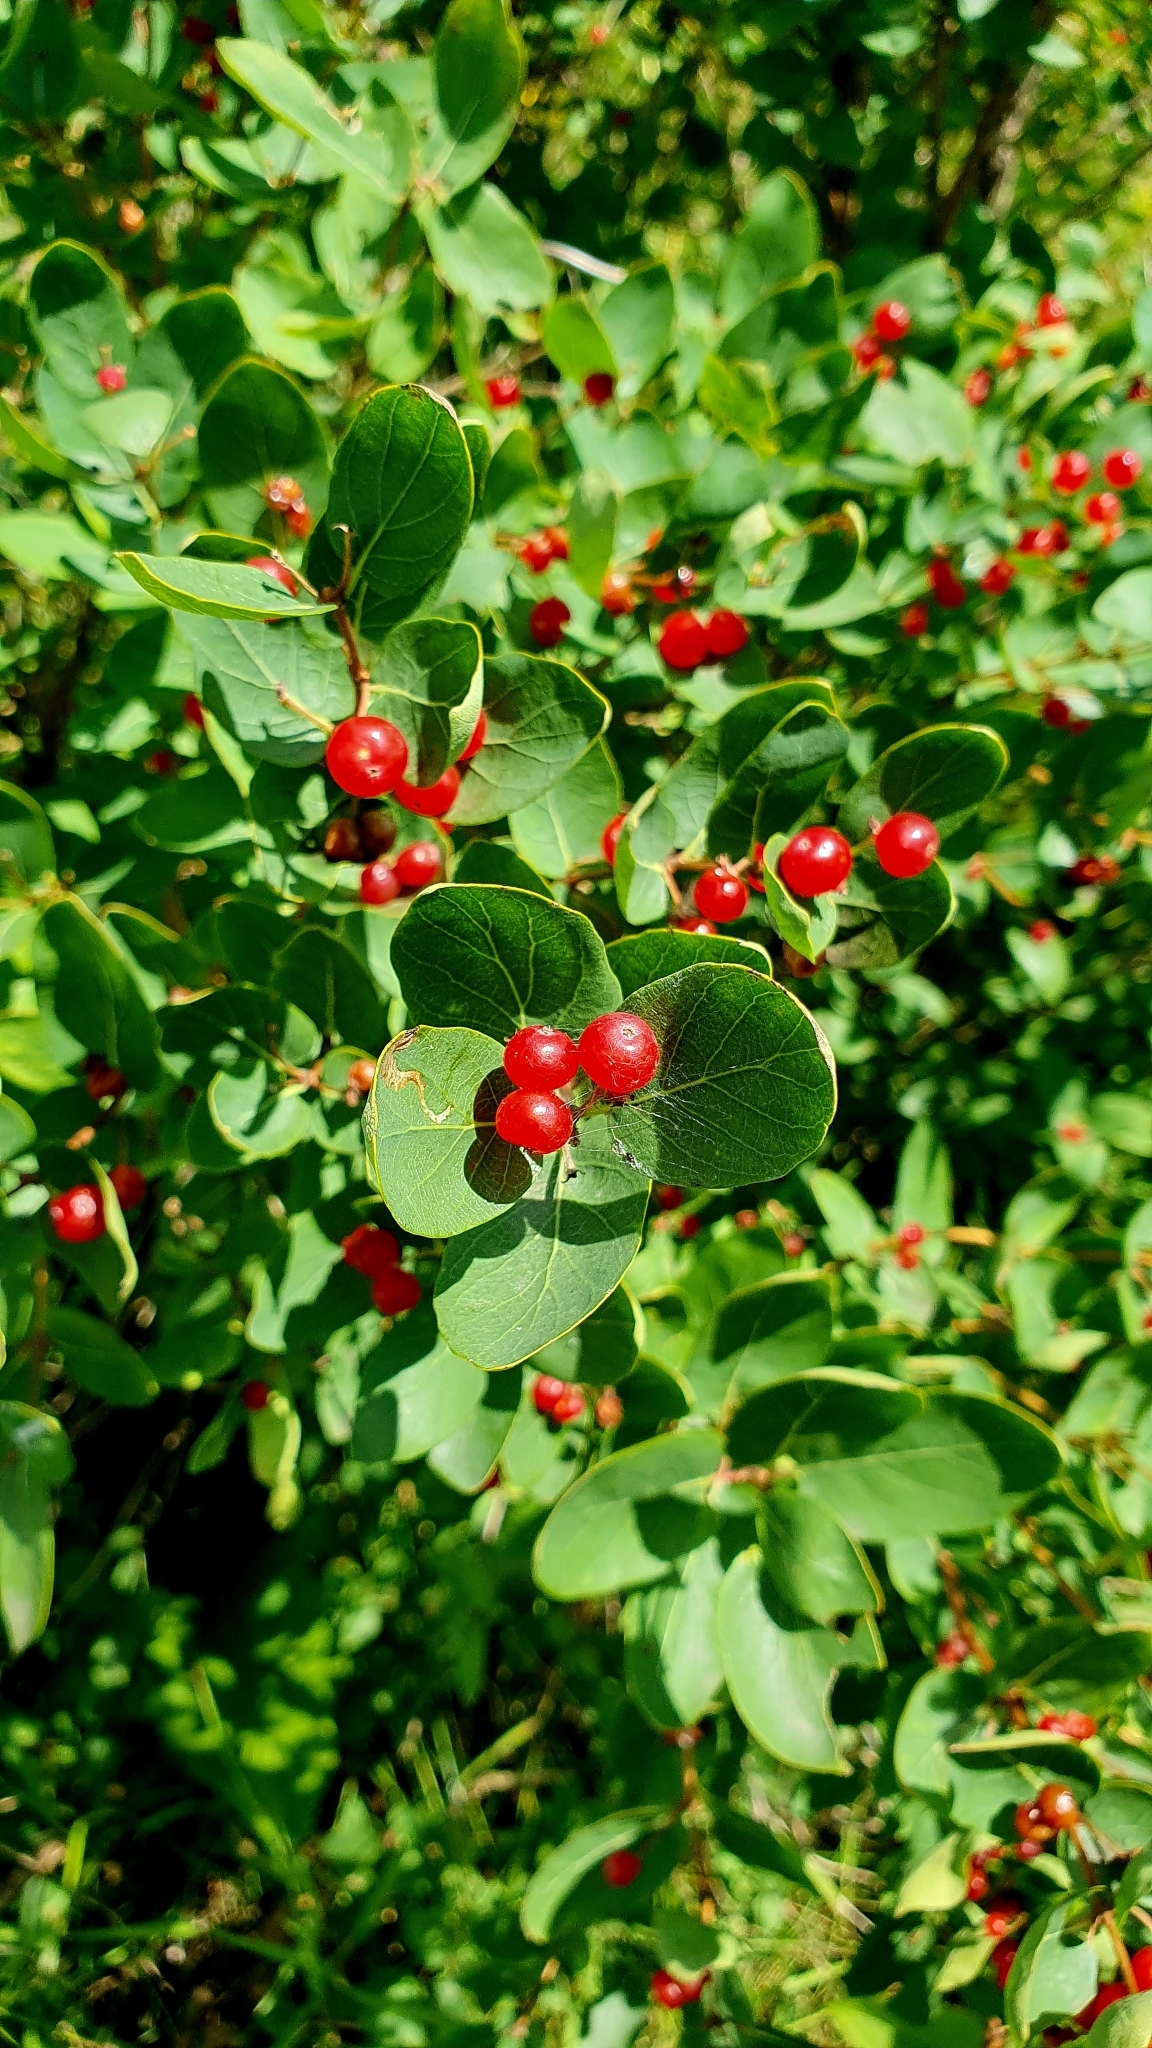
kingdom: Plantae
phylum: Tracheophyta
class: Magnoliopsida
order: Dipsacales
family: Caprifoliaceae
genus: Lonicera
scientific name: Lonicera tatarica
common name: Tatarian honeysuckle
